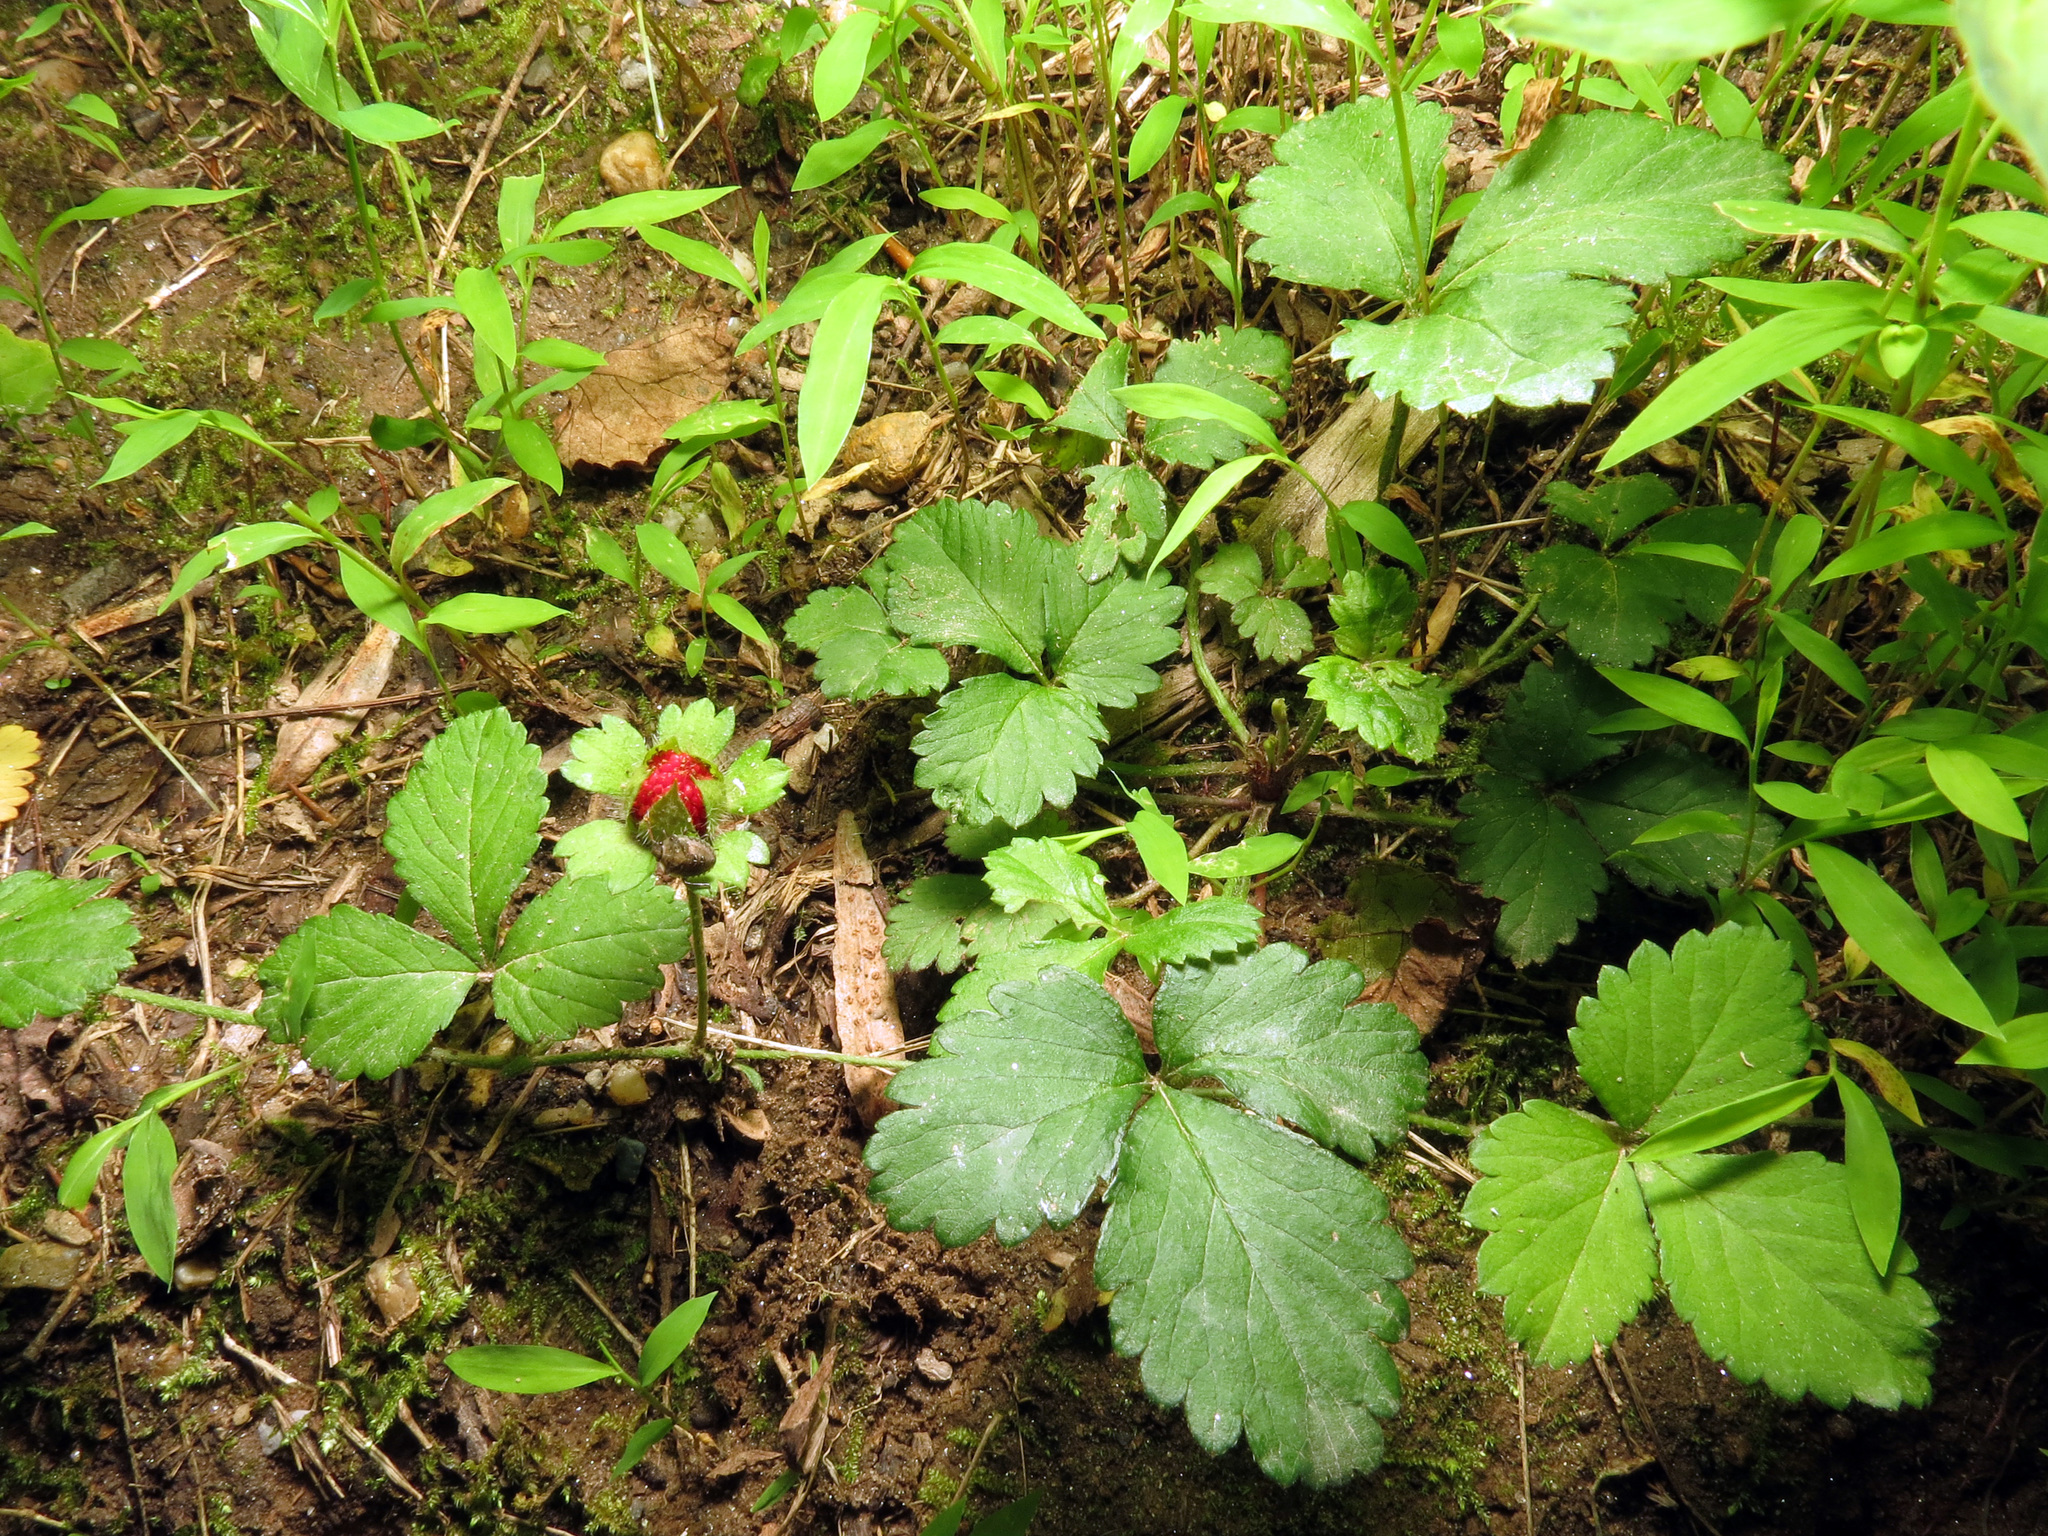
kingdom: Plantae
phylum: Tracheophyta
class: Magnoliopsida
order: Rosales
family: Rosaceae
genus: Potentilla
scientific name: Potentilla indica
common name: Yellow-flowered strawberry
